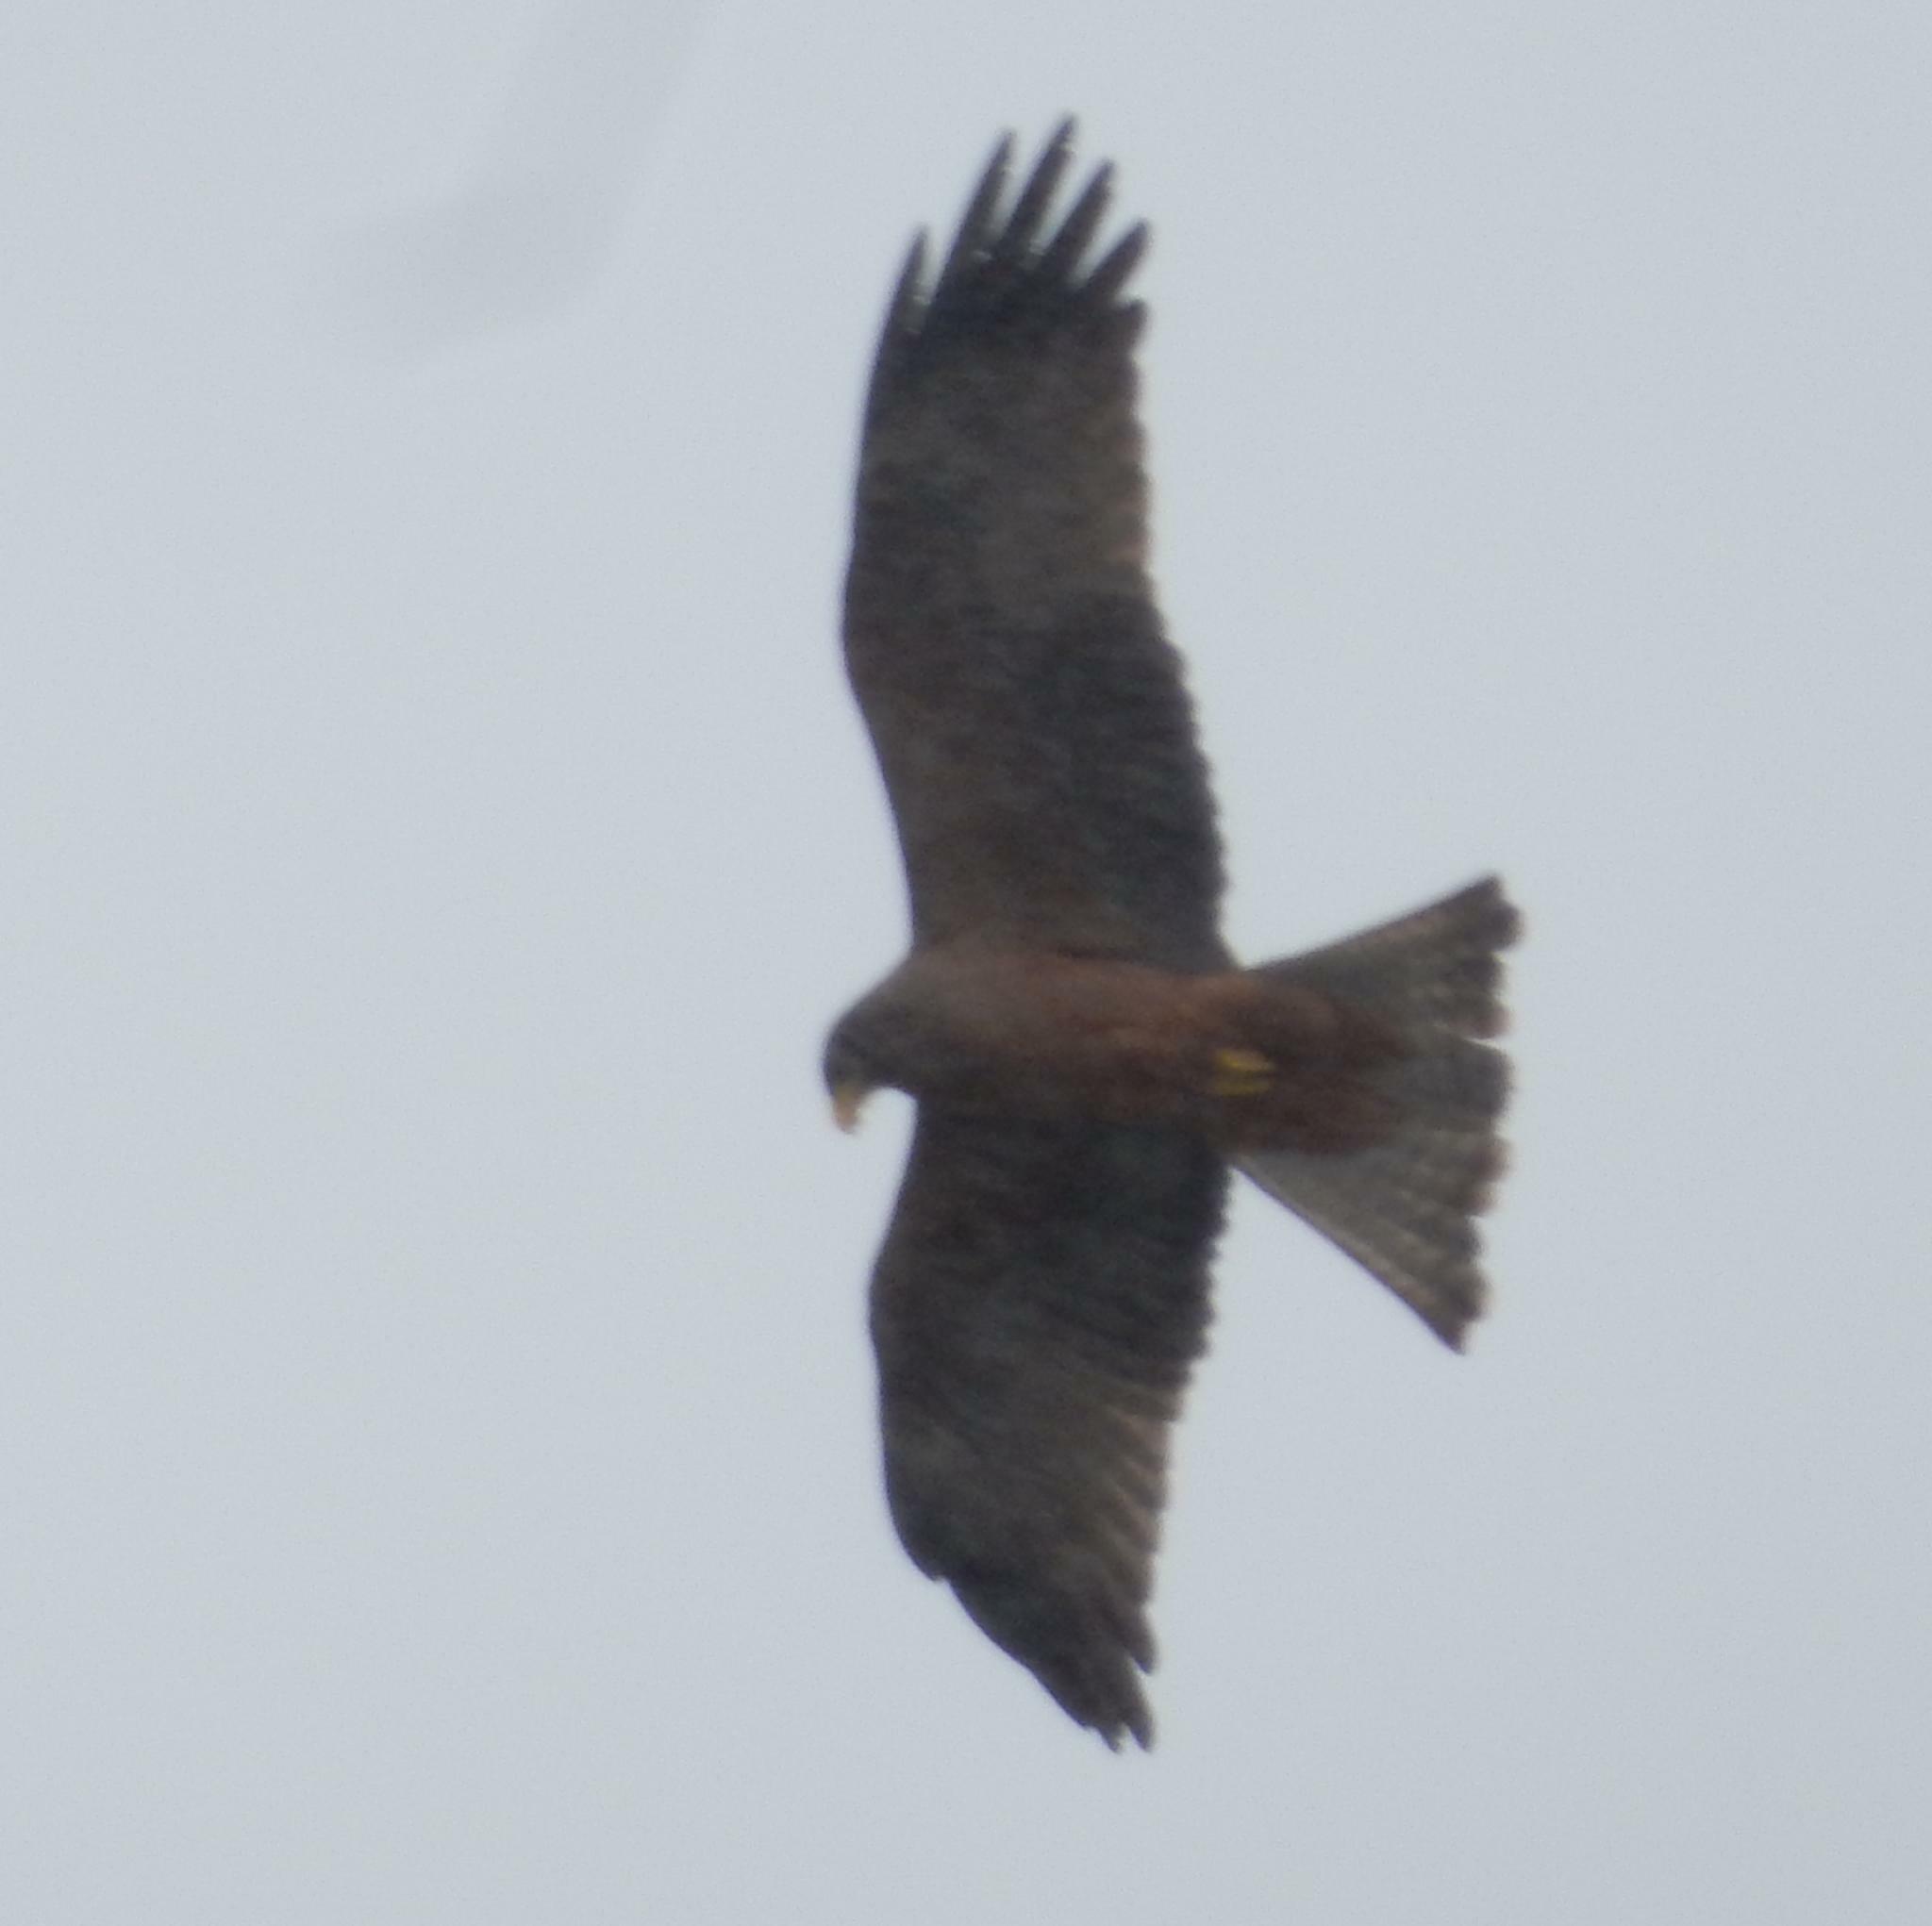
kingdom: Animalia
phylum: Chordata
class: Aves
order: Accipitriformes
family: Accipitridae
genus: Milvus
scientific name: Milvus migrans
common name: Black kite
